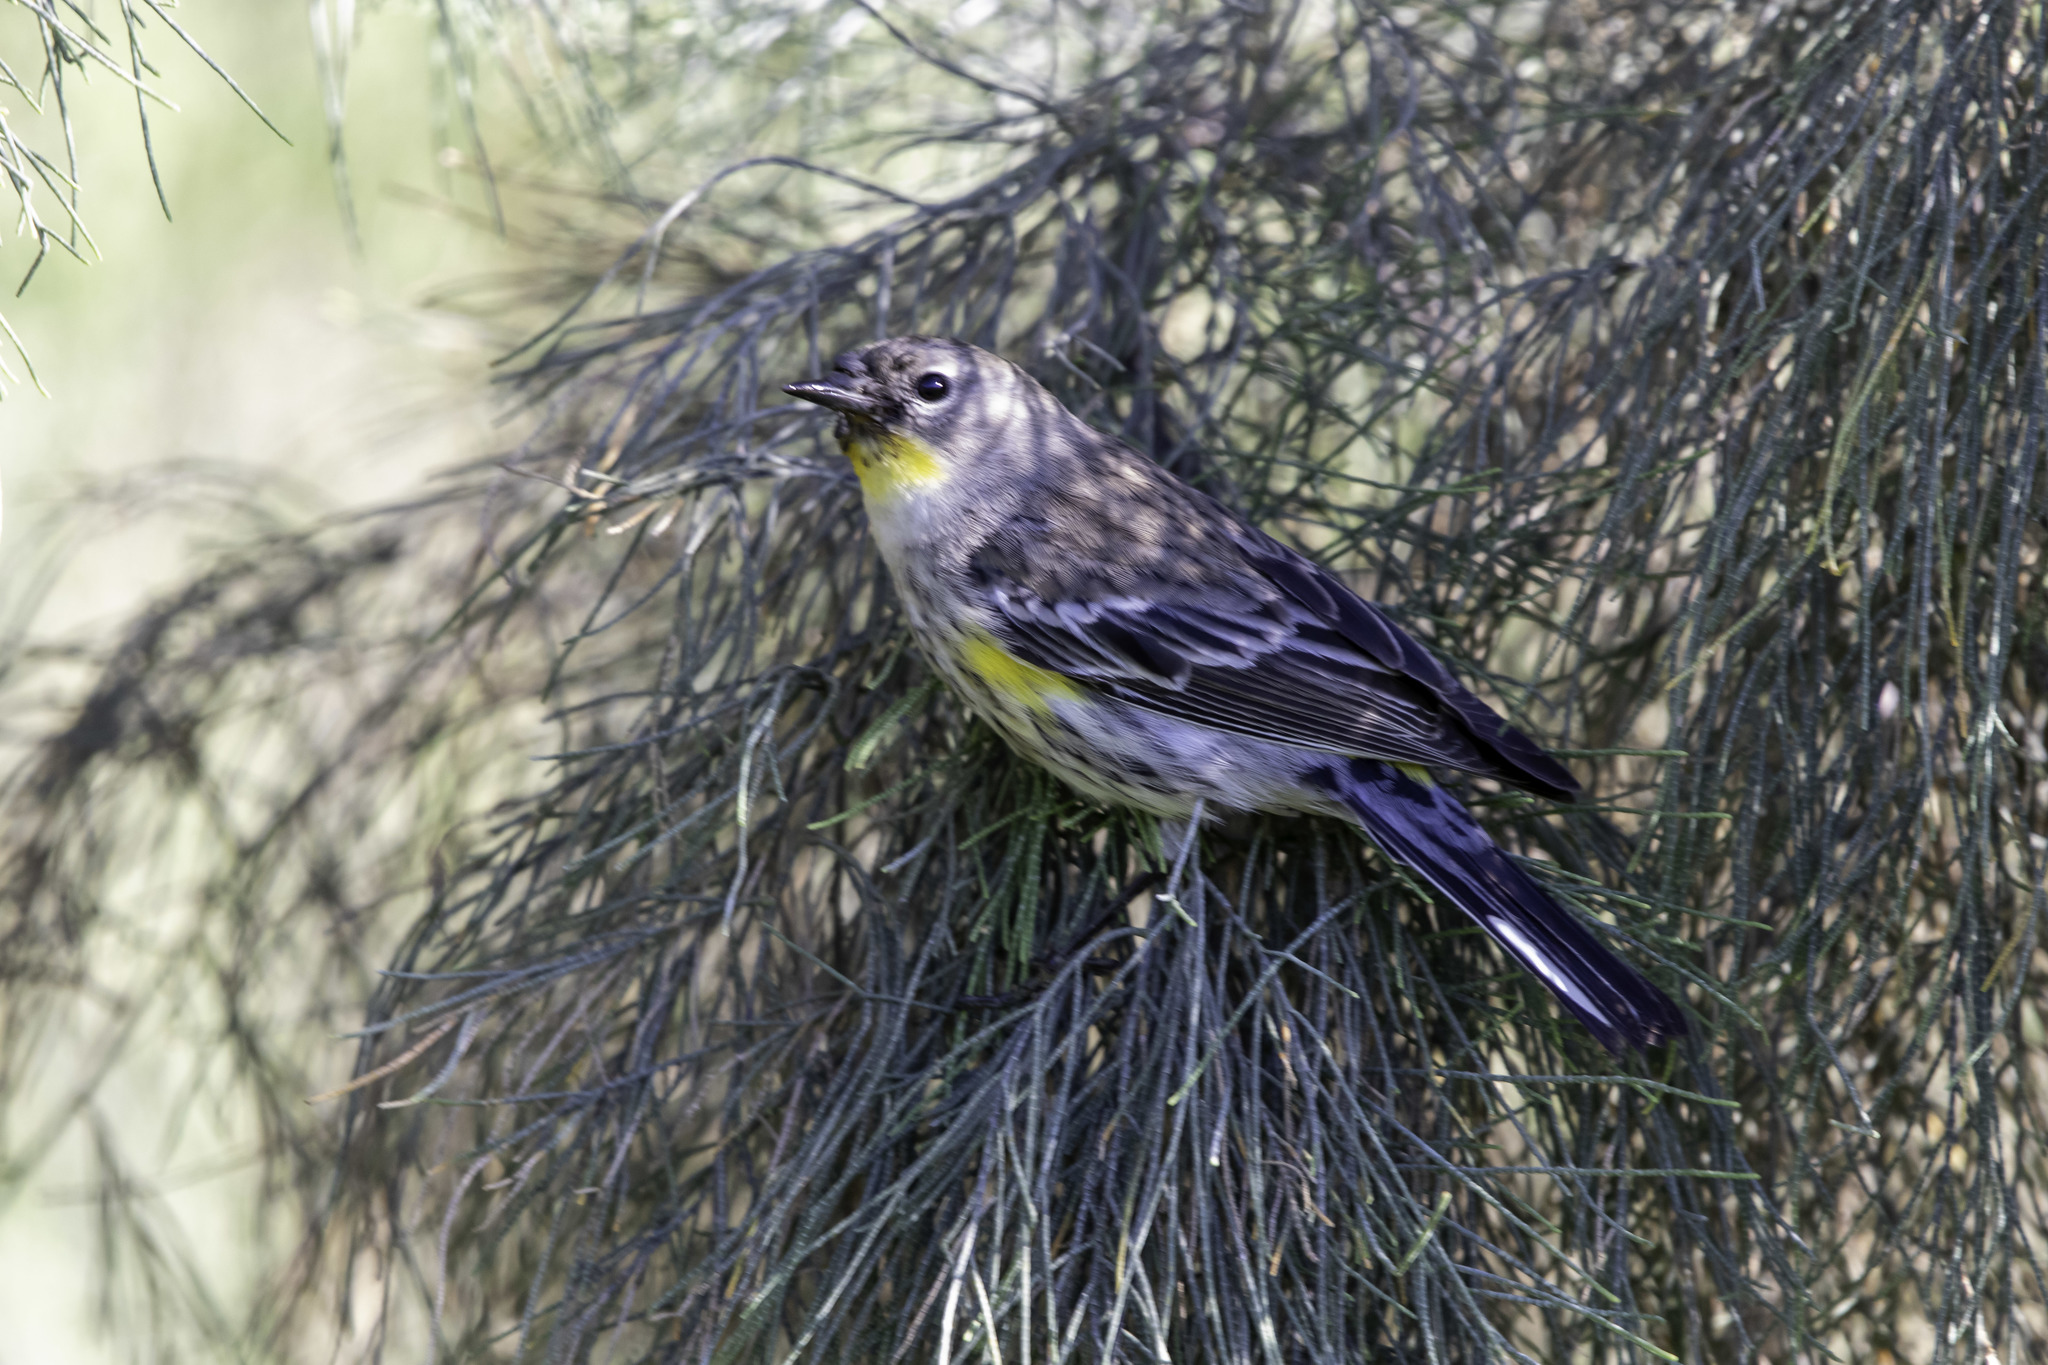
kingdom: Animalia
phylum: Chordata
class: Aves
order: Passeriformes
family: Parulidae
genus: Setophaga
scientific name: Setophaga coronata
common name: Myrtle warbler
